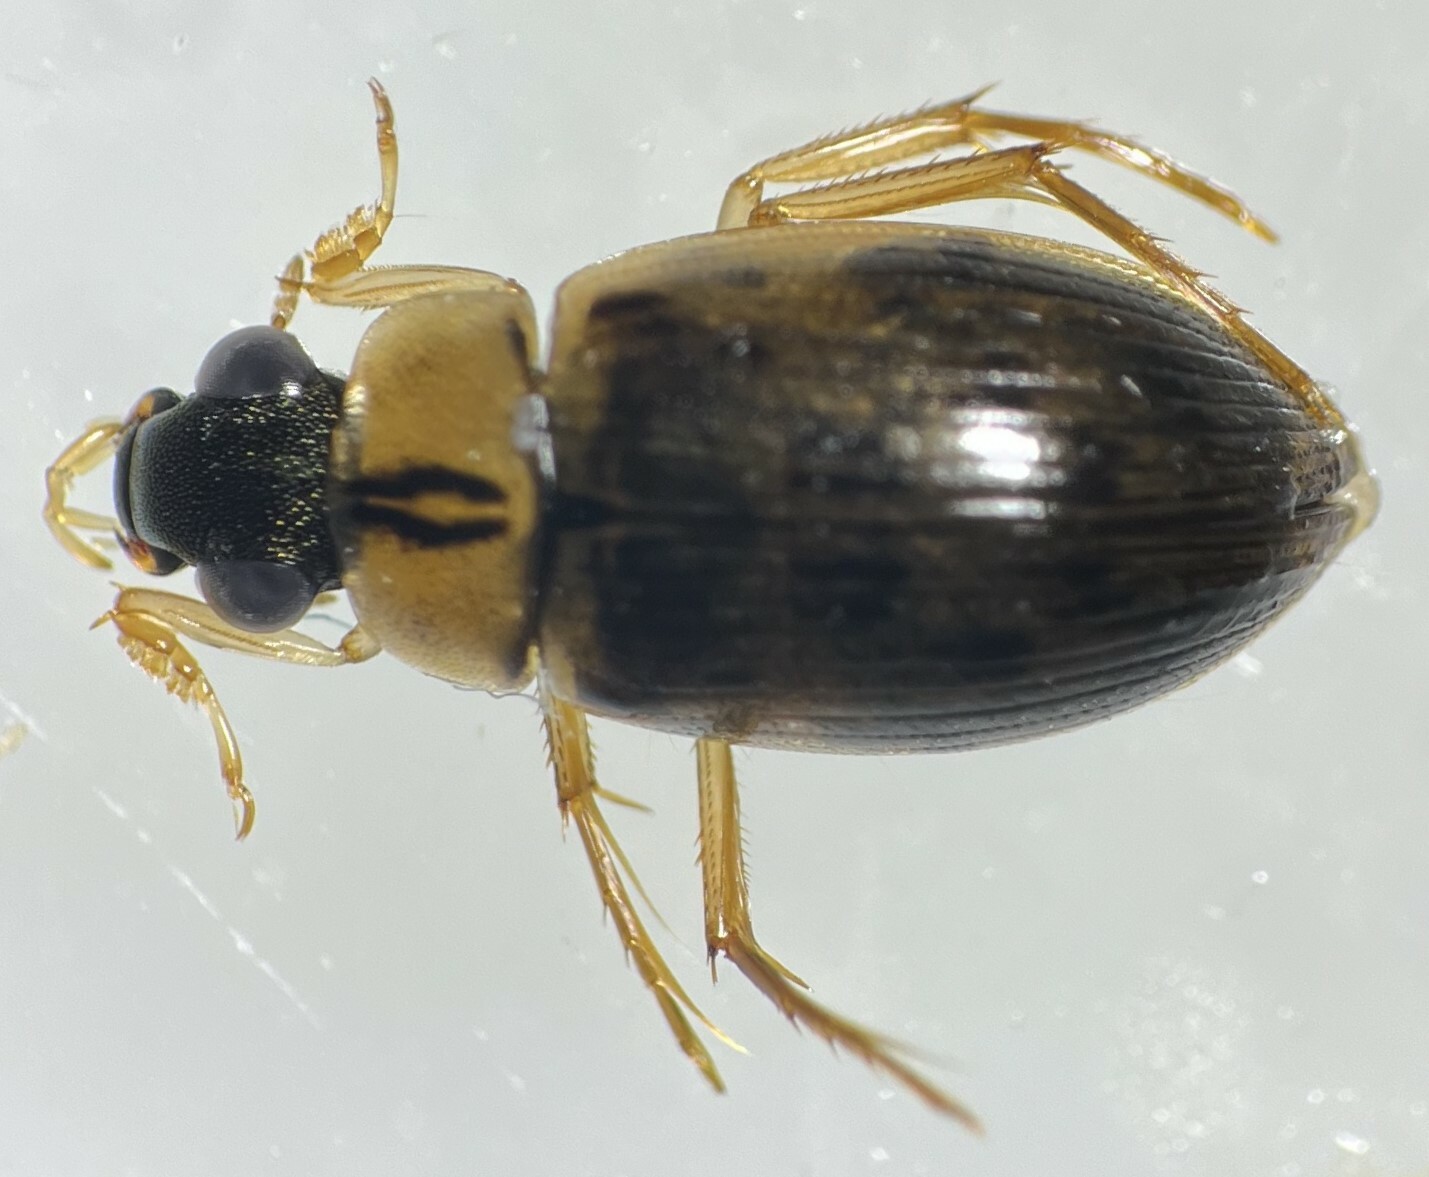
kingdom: Animalia
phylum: Arthropoda
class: Insecta
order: Coleoptera
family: Hydrophilidae
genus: Berosus
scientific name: Berosus infuscatus
